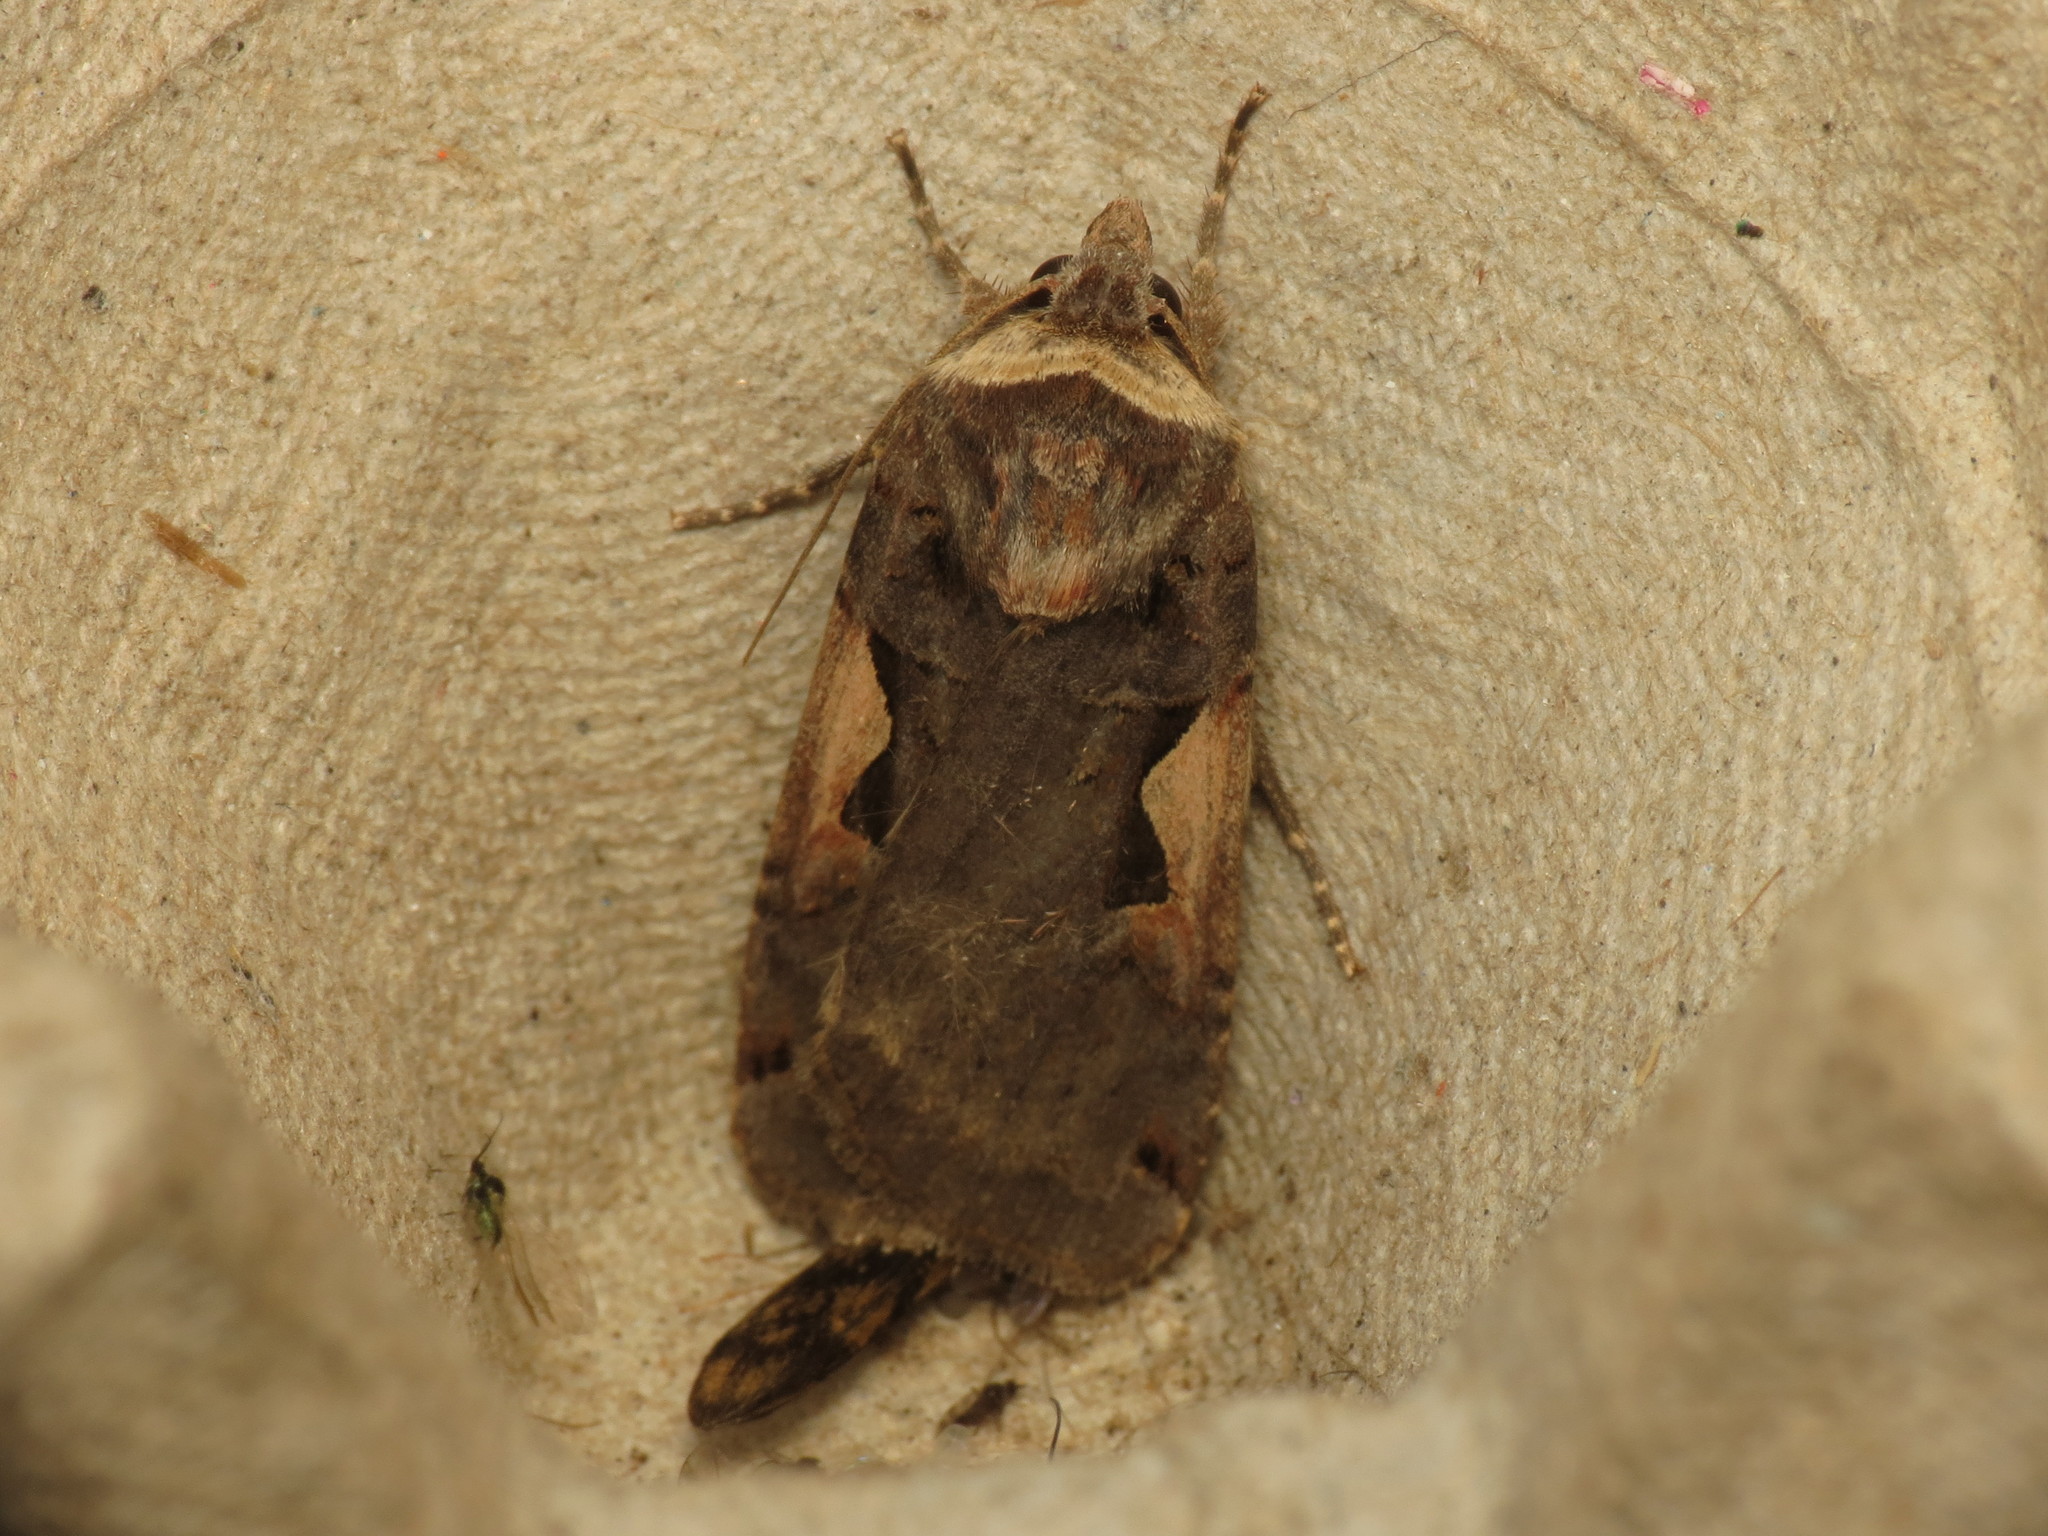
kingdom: Animalia
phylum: Arthropoda
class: Insecta
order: Lepidoptera
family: Noctuidae
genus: Xestia
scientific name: Xestia c-nigrum
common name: Setaceous hebrew character
